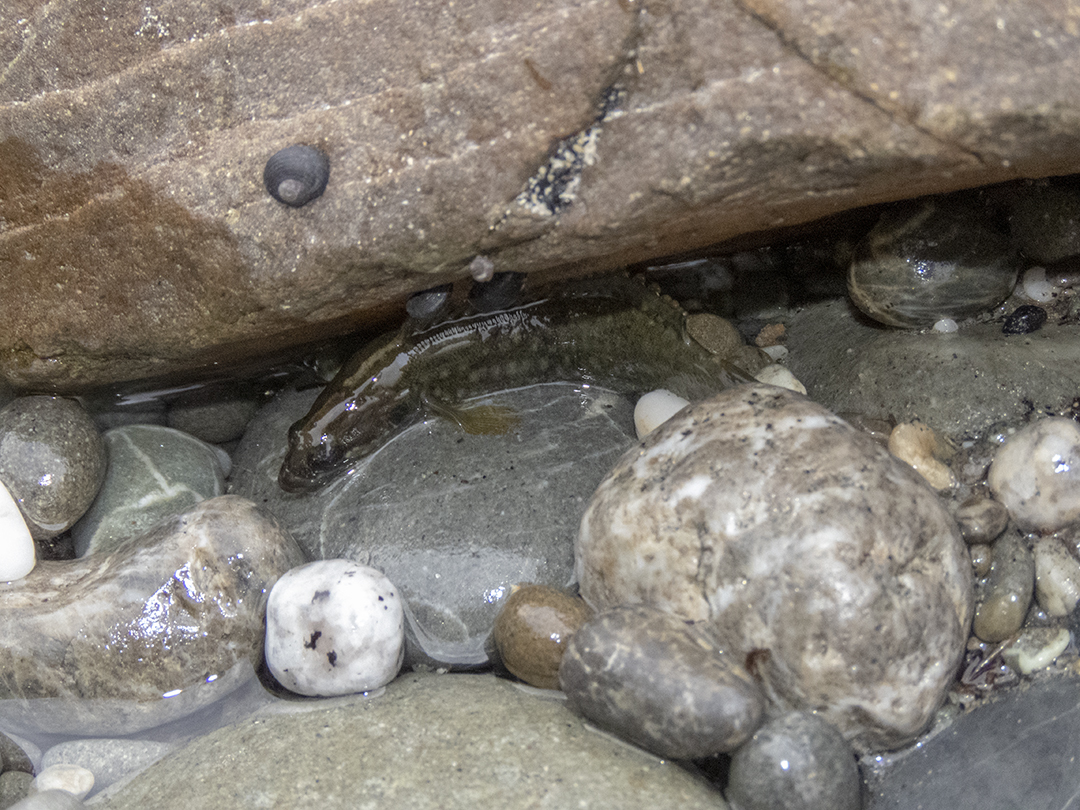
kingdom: Animalia
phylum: Chordata
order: Perciformes
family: Plesiopidae
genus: Acanthoclinus
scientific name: Acanthoclinus fuscus
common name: Olive rockfish
